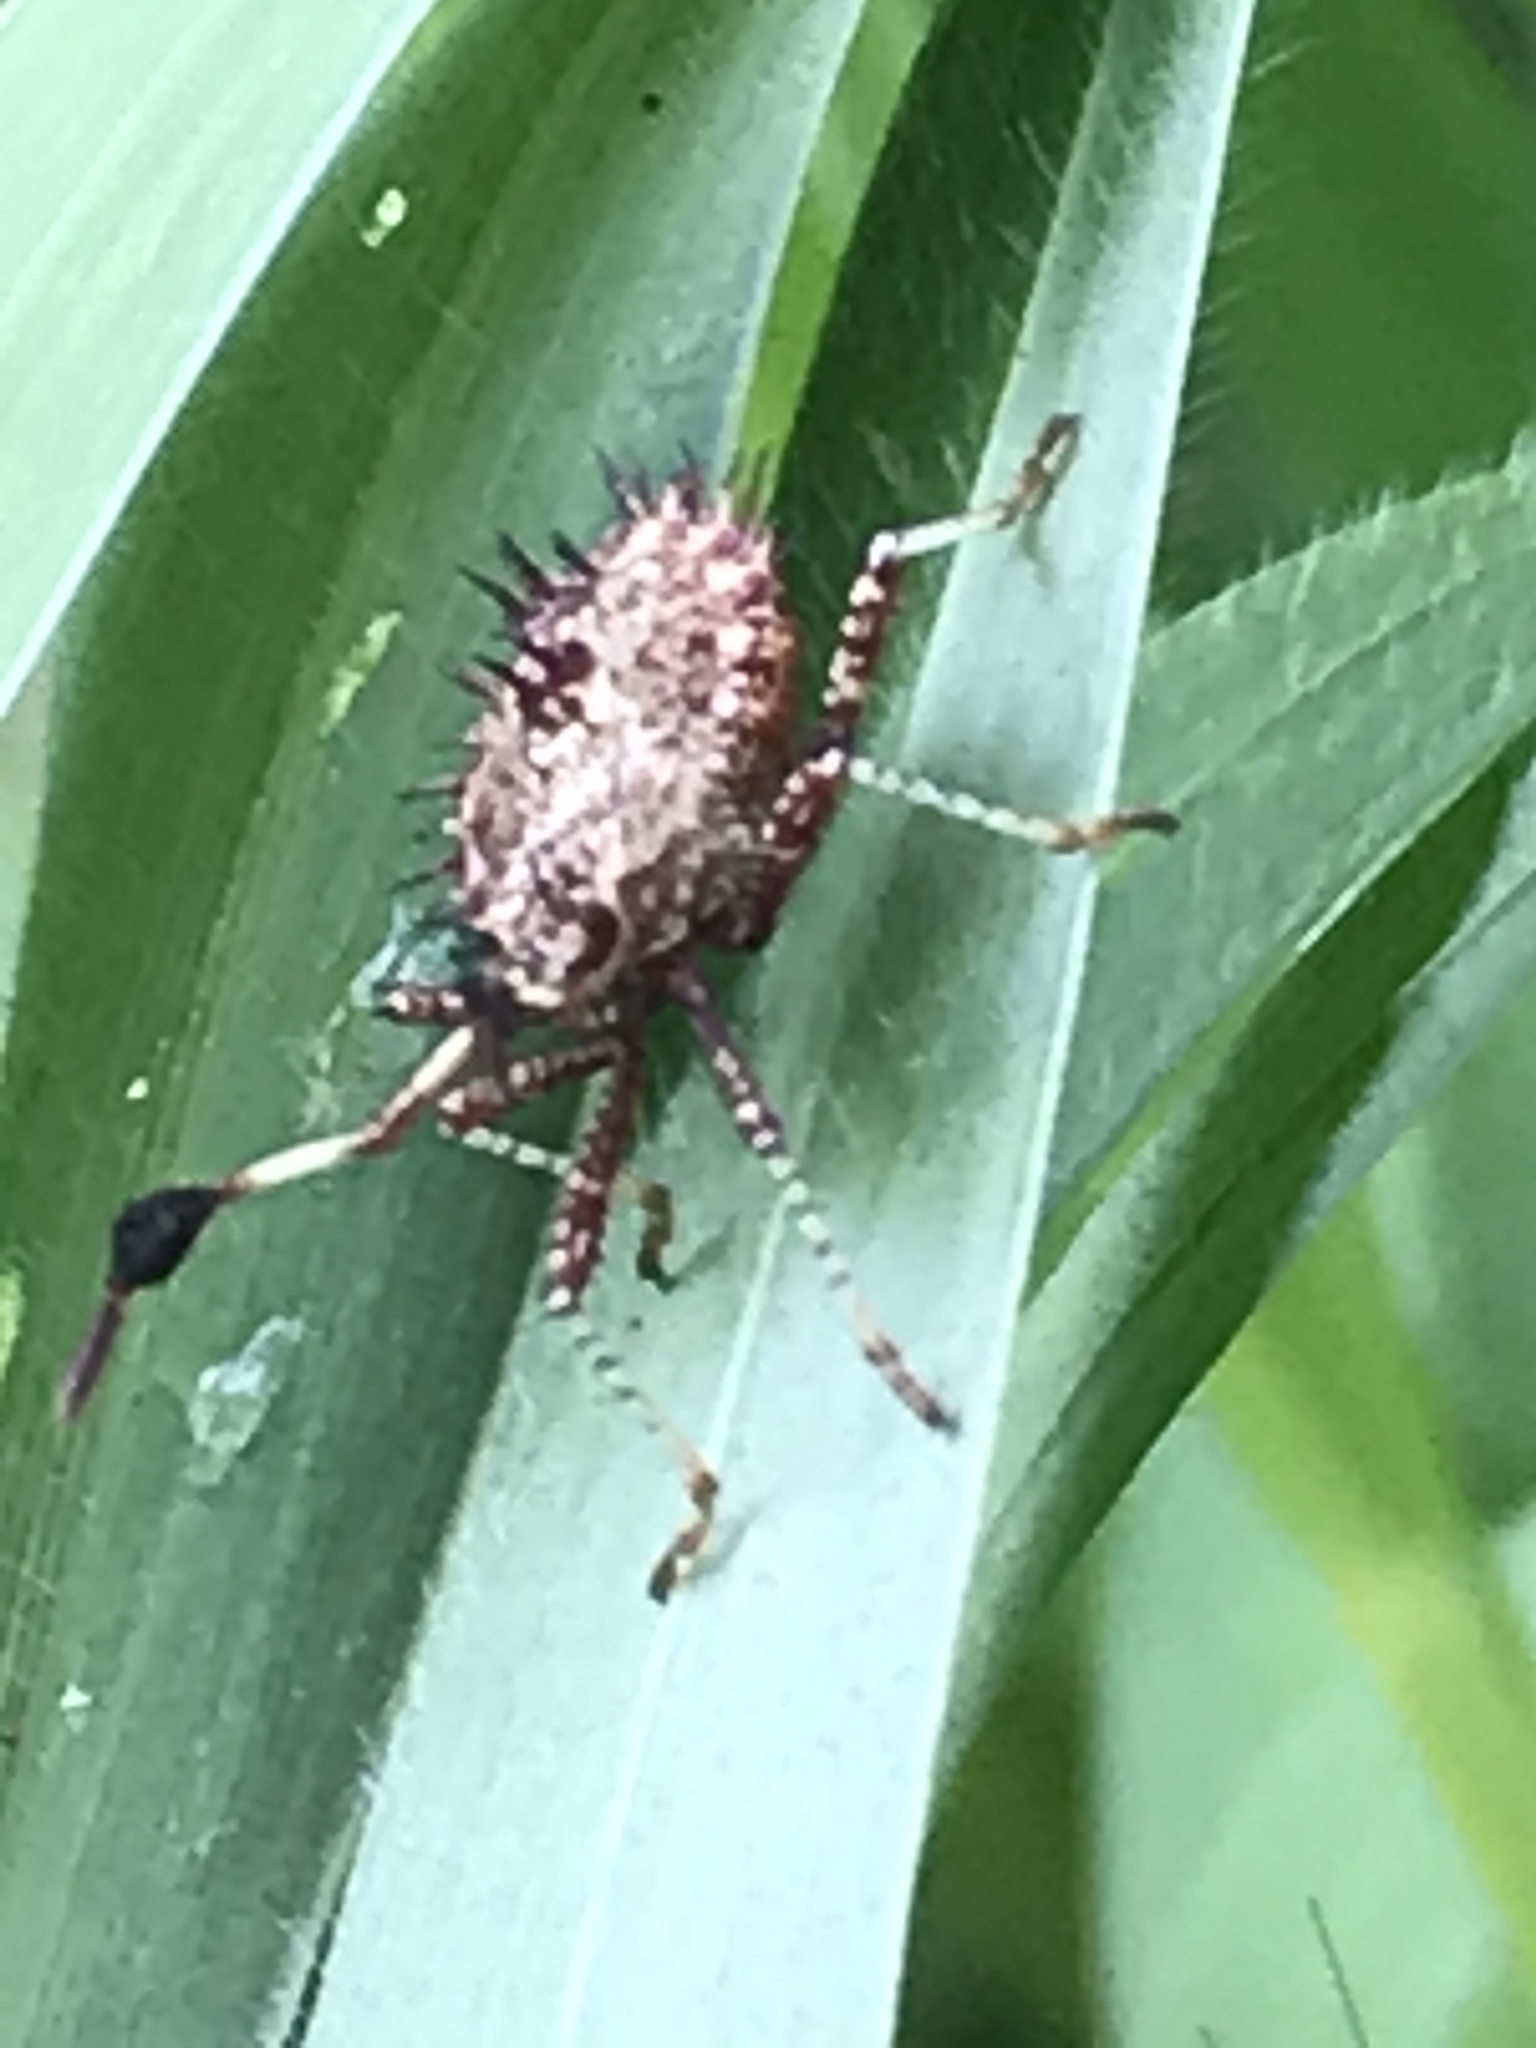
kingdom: Animalia
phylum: Arthropoda
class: Insecta
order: Hemiptera
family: Coreidae
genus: Euthochtha
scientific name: Euthochtha galeator
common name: Helmeted squash bug
